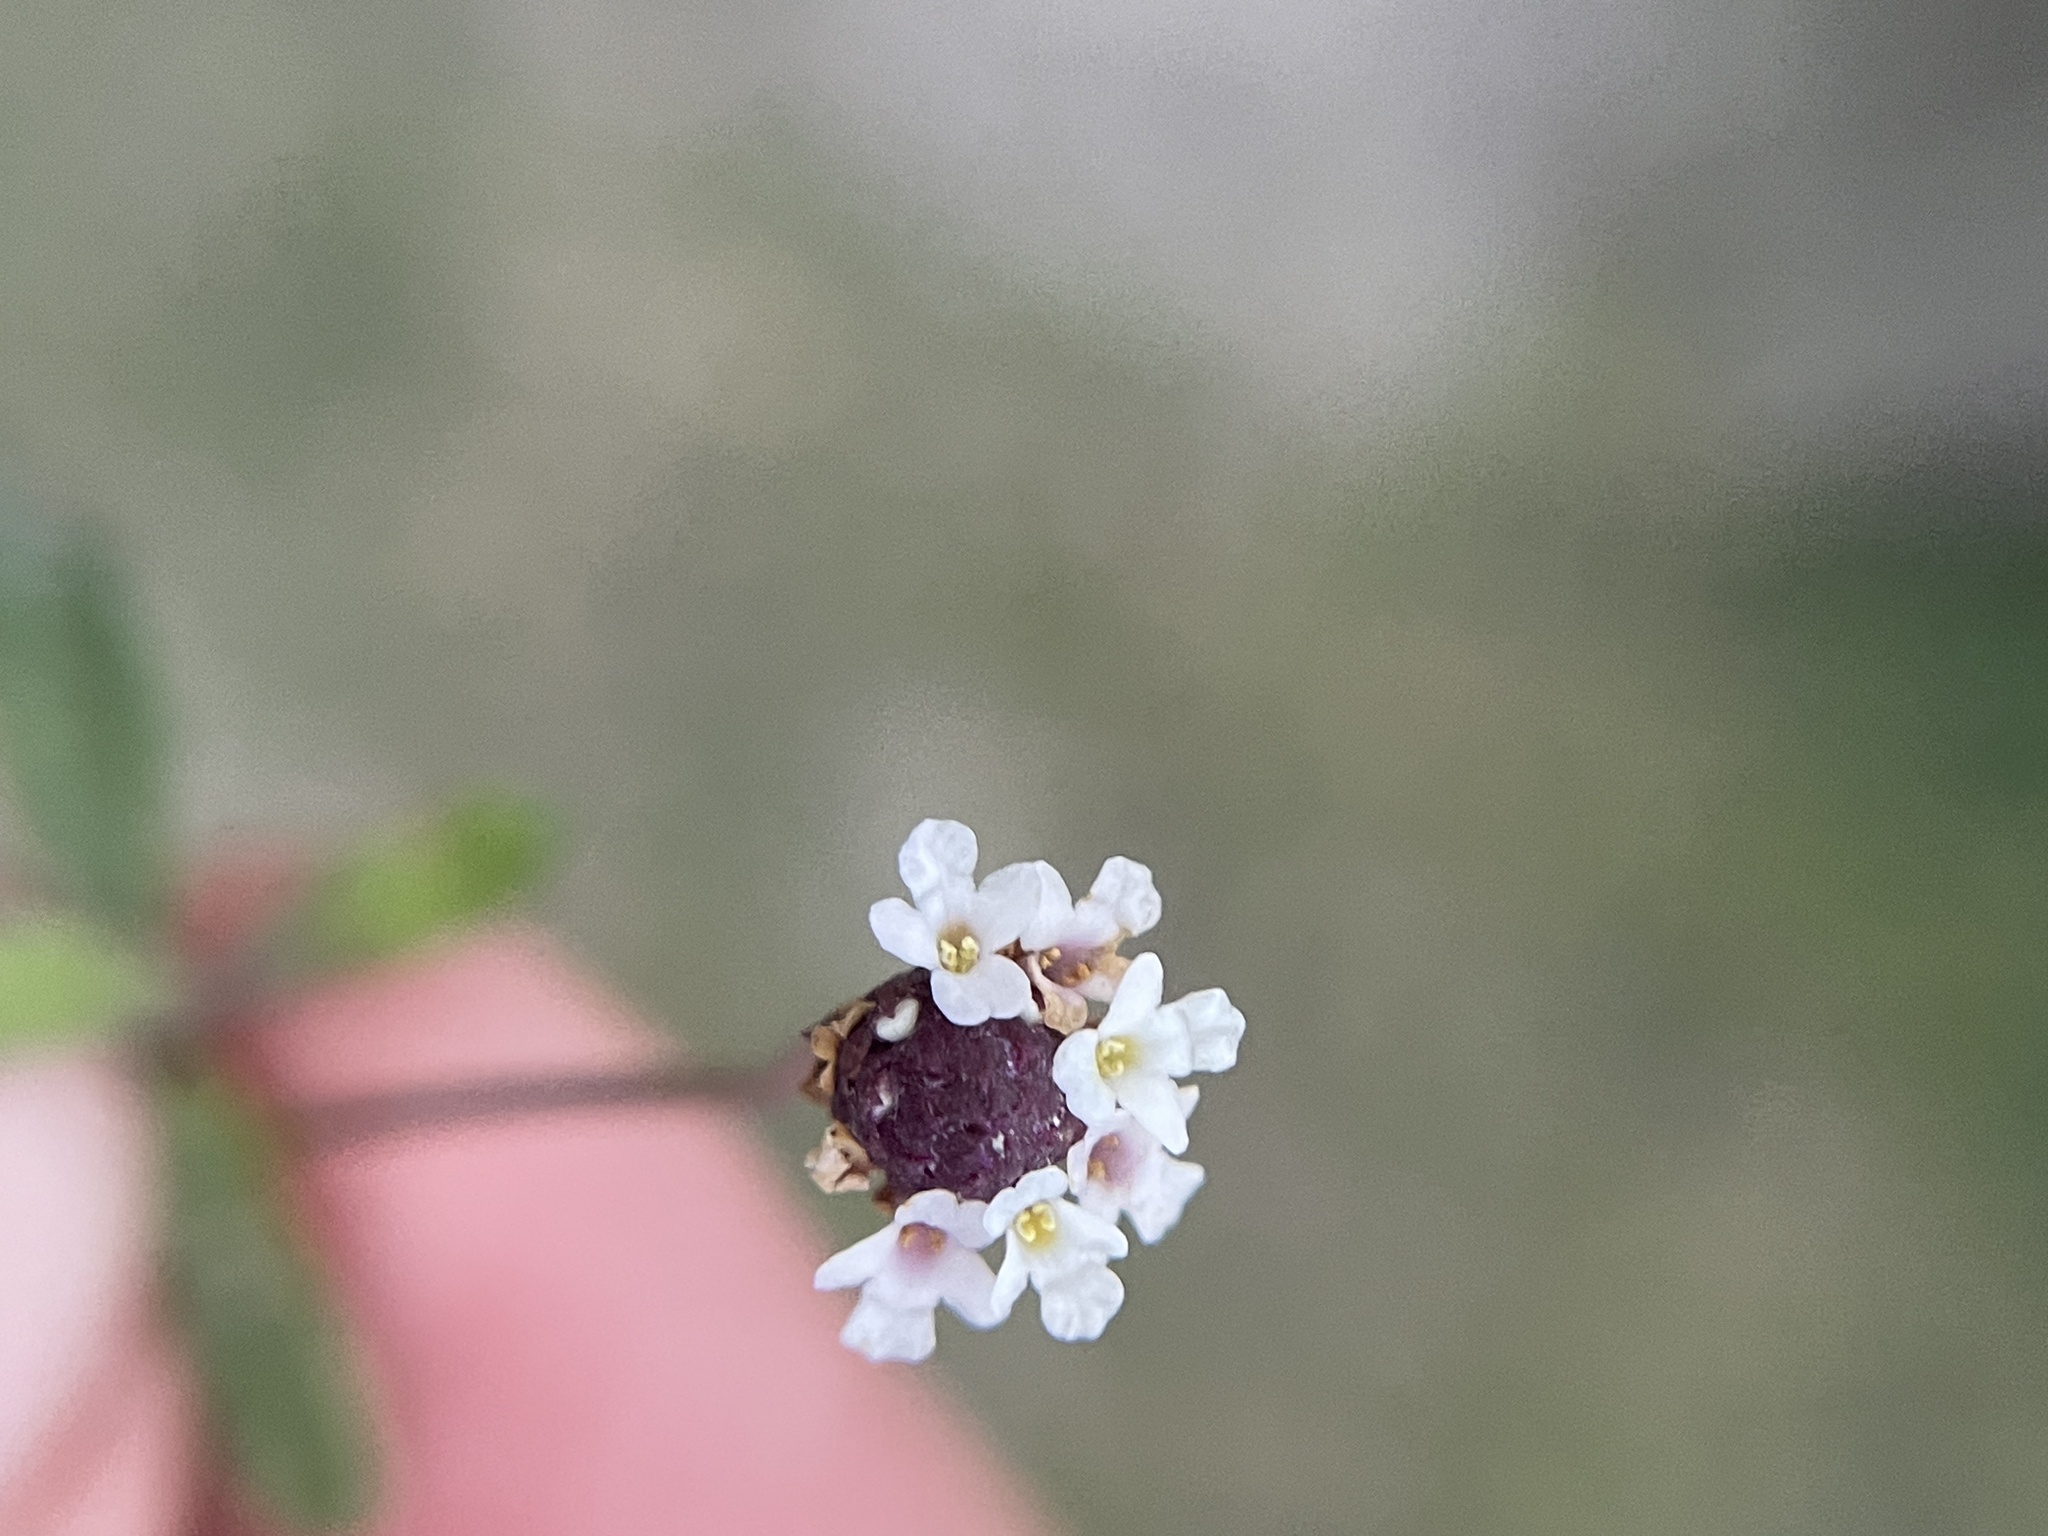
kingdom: Plantae
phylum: Tracheophyta
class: Magnoliopsida
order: Lamiales
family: Verbenaceae
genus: Phyla
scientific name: Phyla nodiflora
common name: Frogfruit
